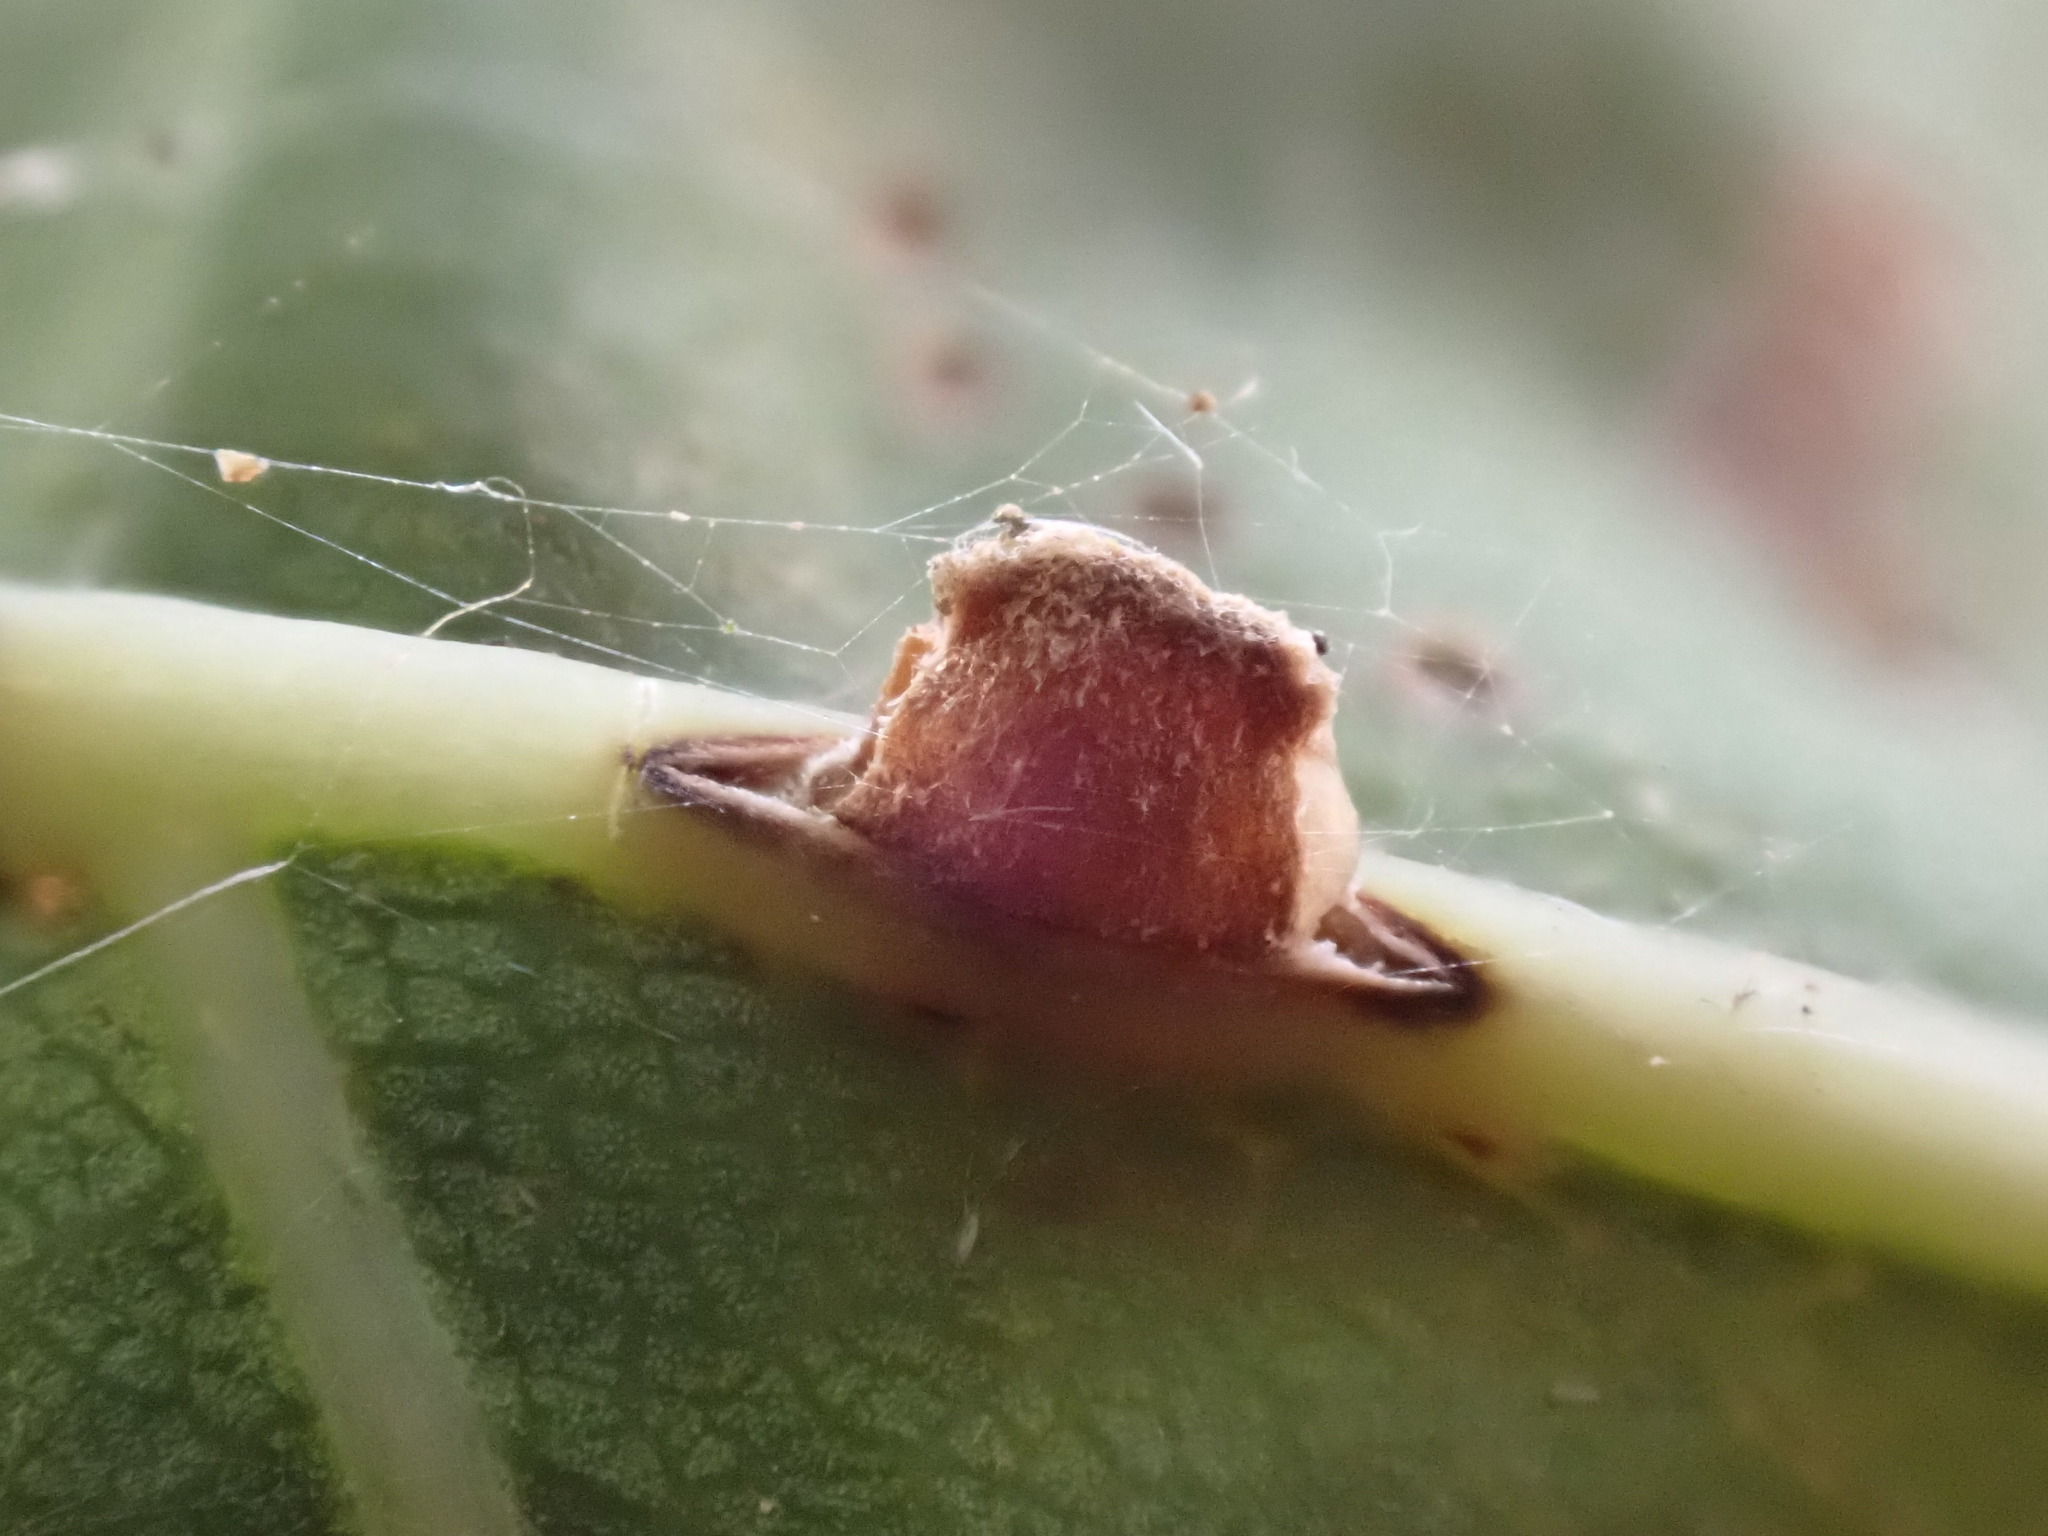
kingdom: Animalia
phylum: Arthropoda
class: Insecta
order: Hymenoptera
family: Cynipidae
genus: Neuroterus
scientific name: Neuroterus anthracinus
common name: Oyster gall
